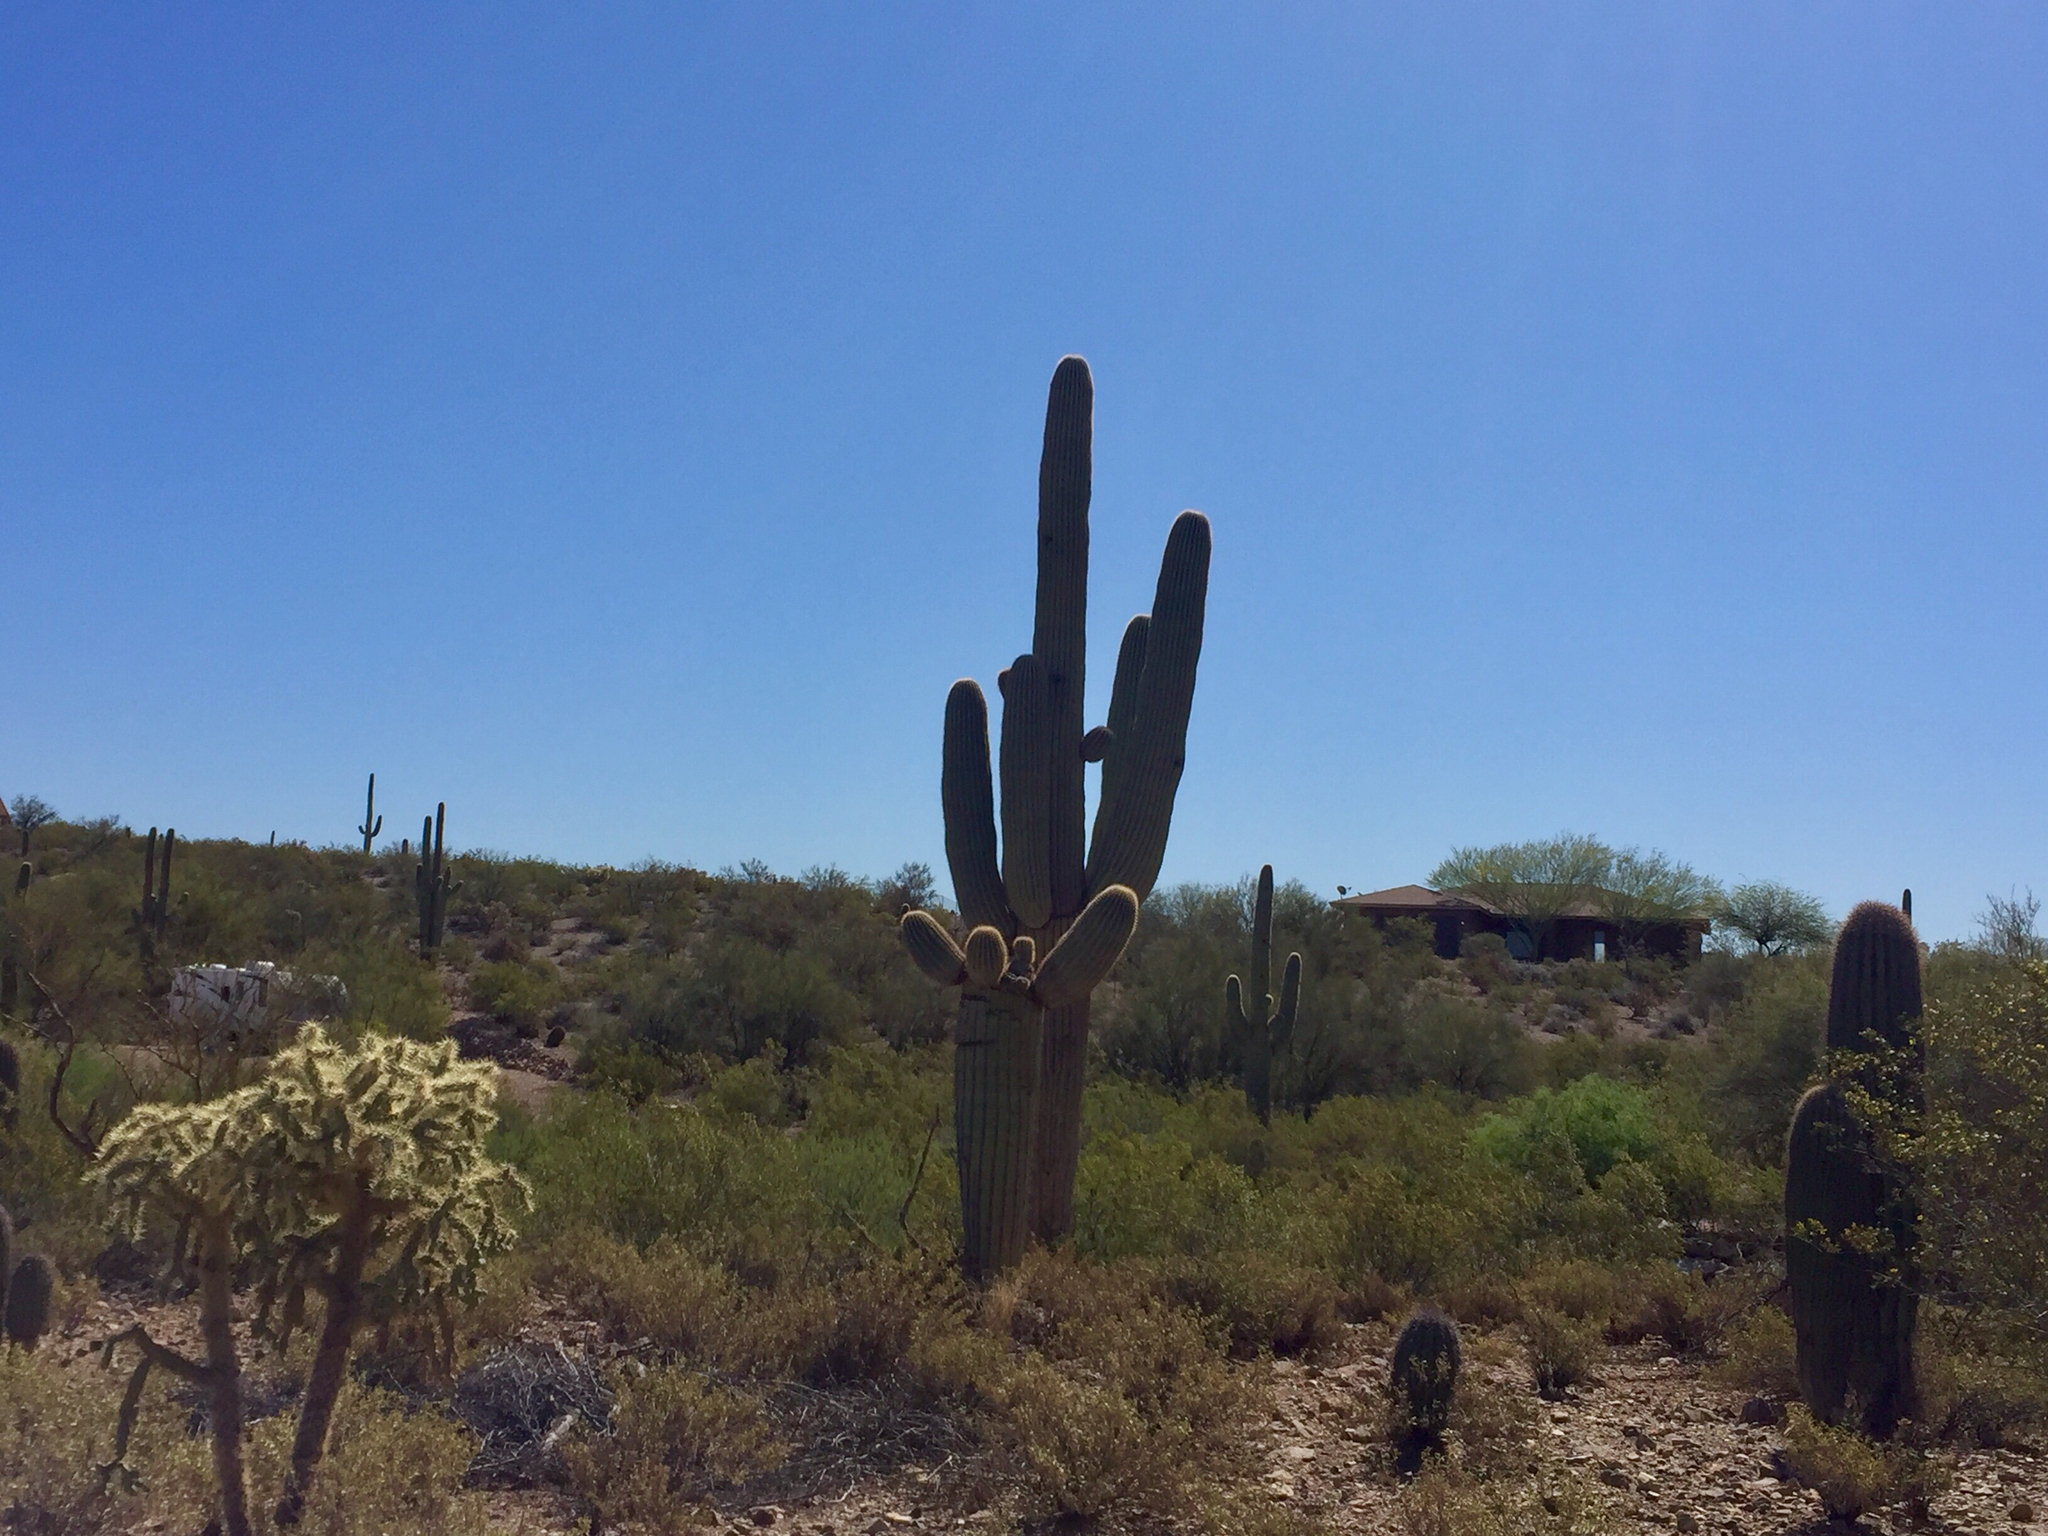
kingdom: Plantae
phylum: Tracheophyta
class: Magnoliopsida
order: Caryophyllales
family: Cactaceae
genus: Carnegiea
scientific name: Carnegiea gigantea
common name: Saguaro
